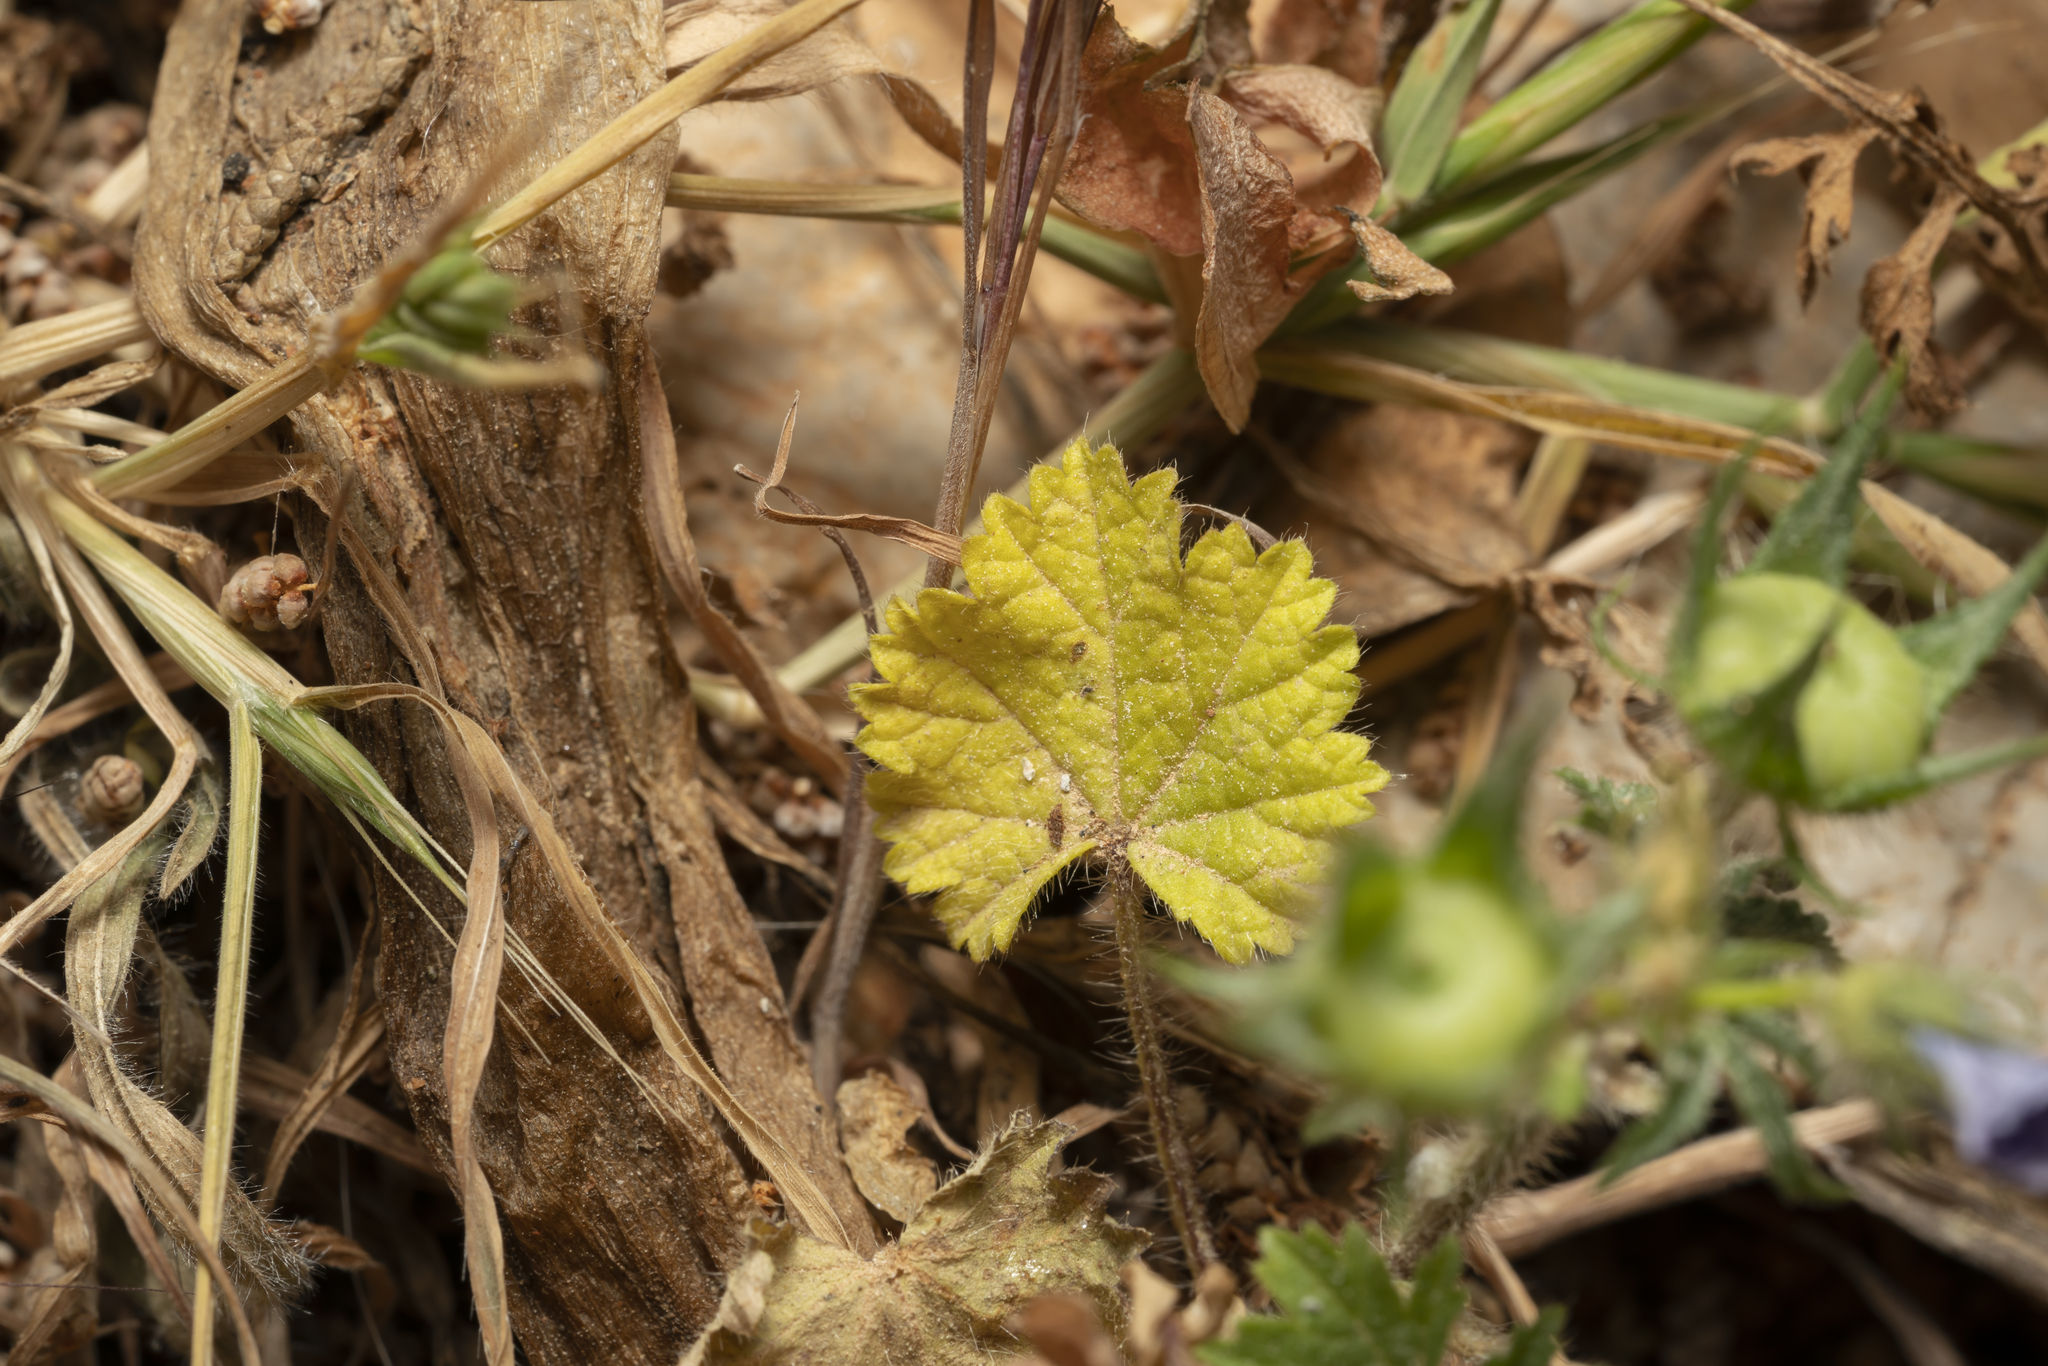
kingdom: Plantae
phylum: Tracheophyta
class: Magnoliopsida
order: Asterales
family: Campanulaceae
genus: Campanula
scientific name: Campanula rhodensis
